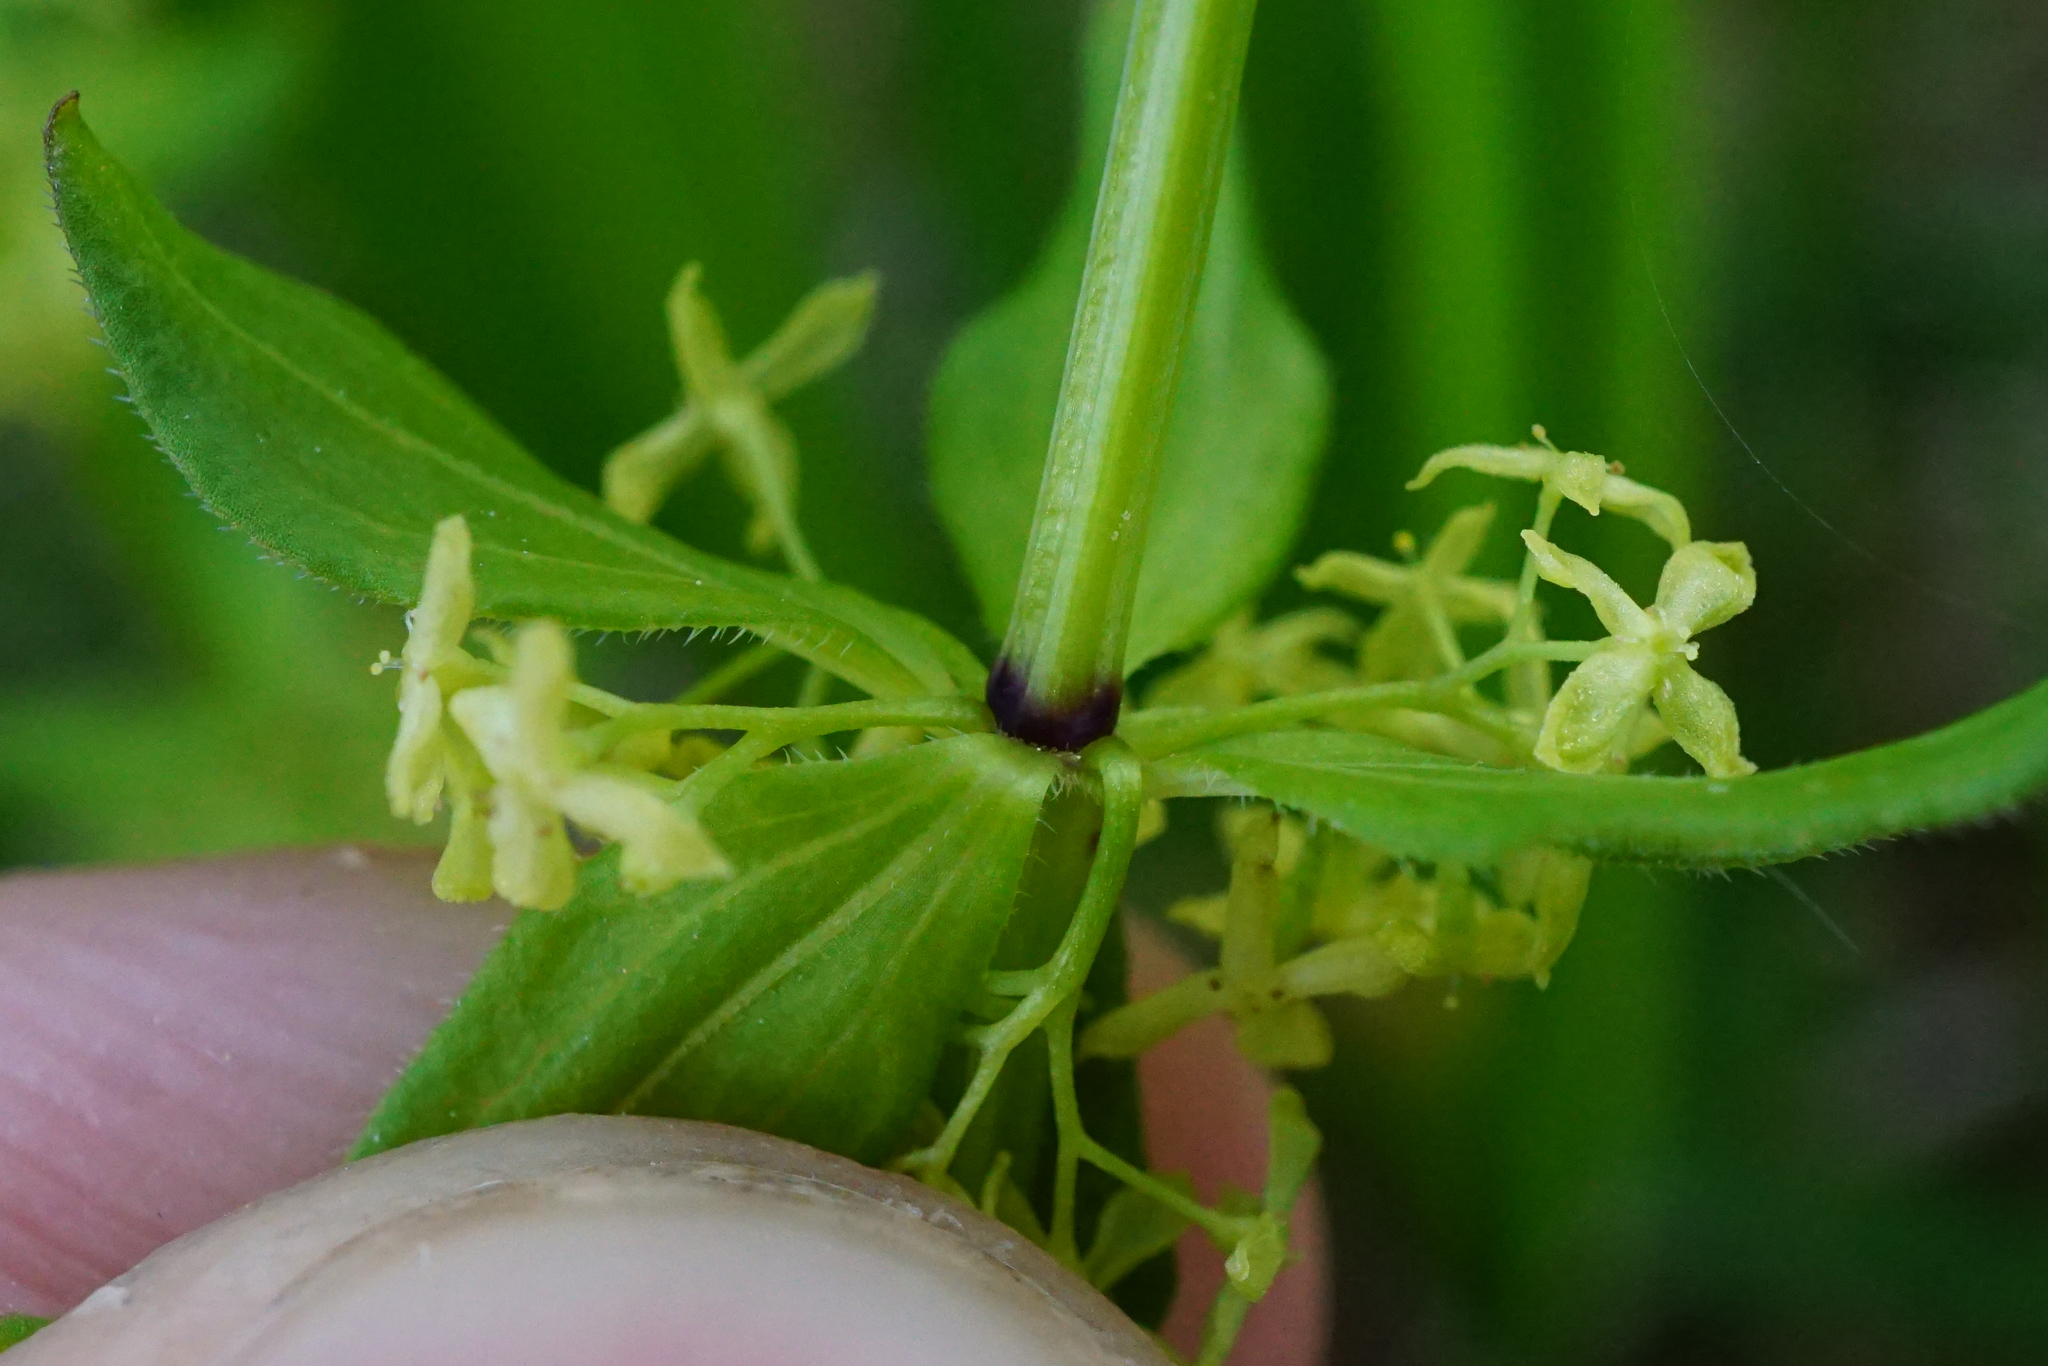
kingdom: Plantae
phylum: Tracheophyta
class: Magnoliopsida
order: Gentianales
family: Rubiaceae
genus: Cruciata
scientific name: Cruciata glabra
